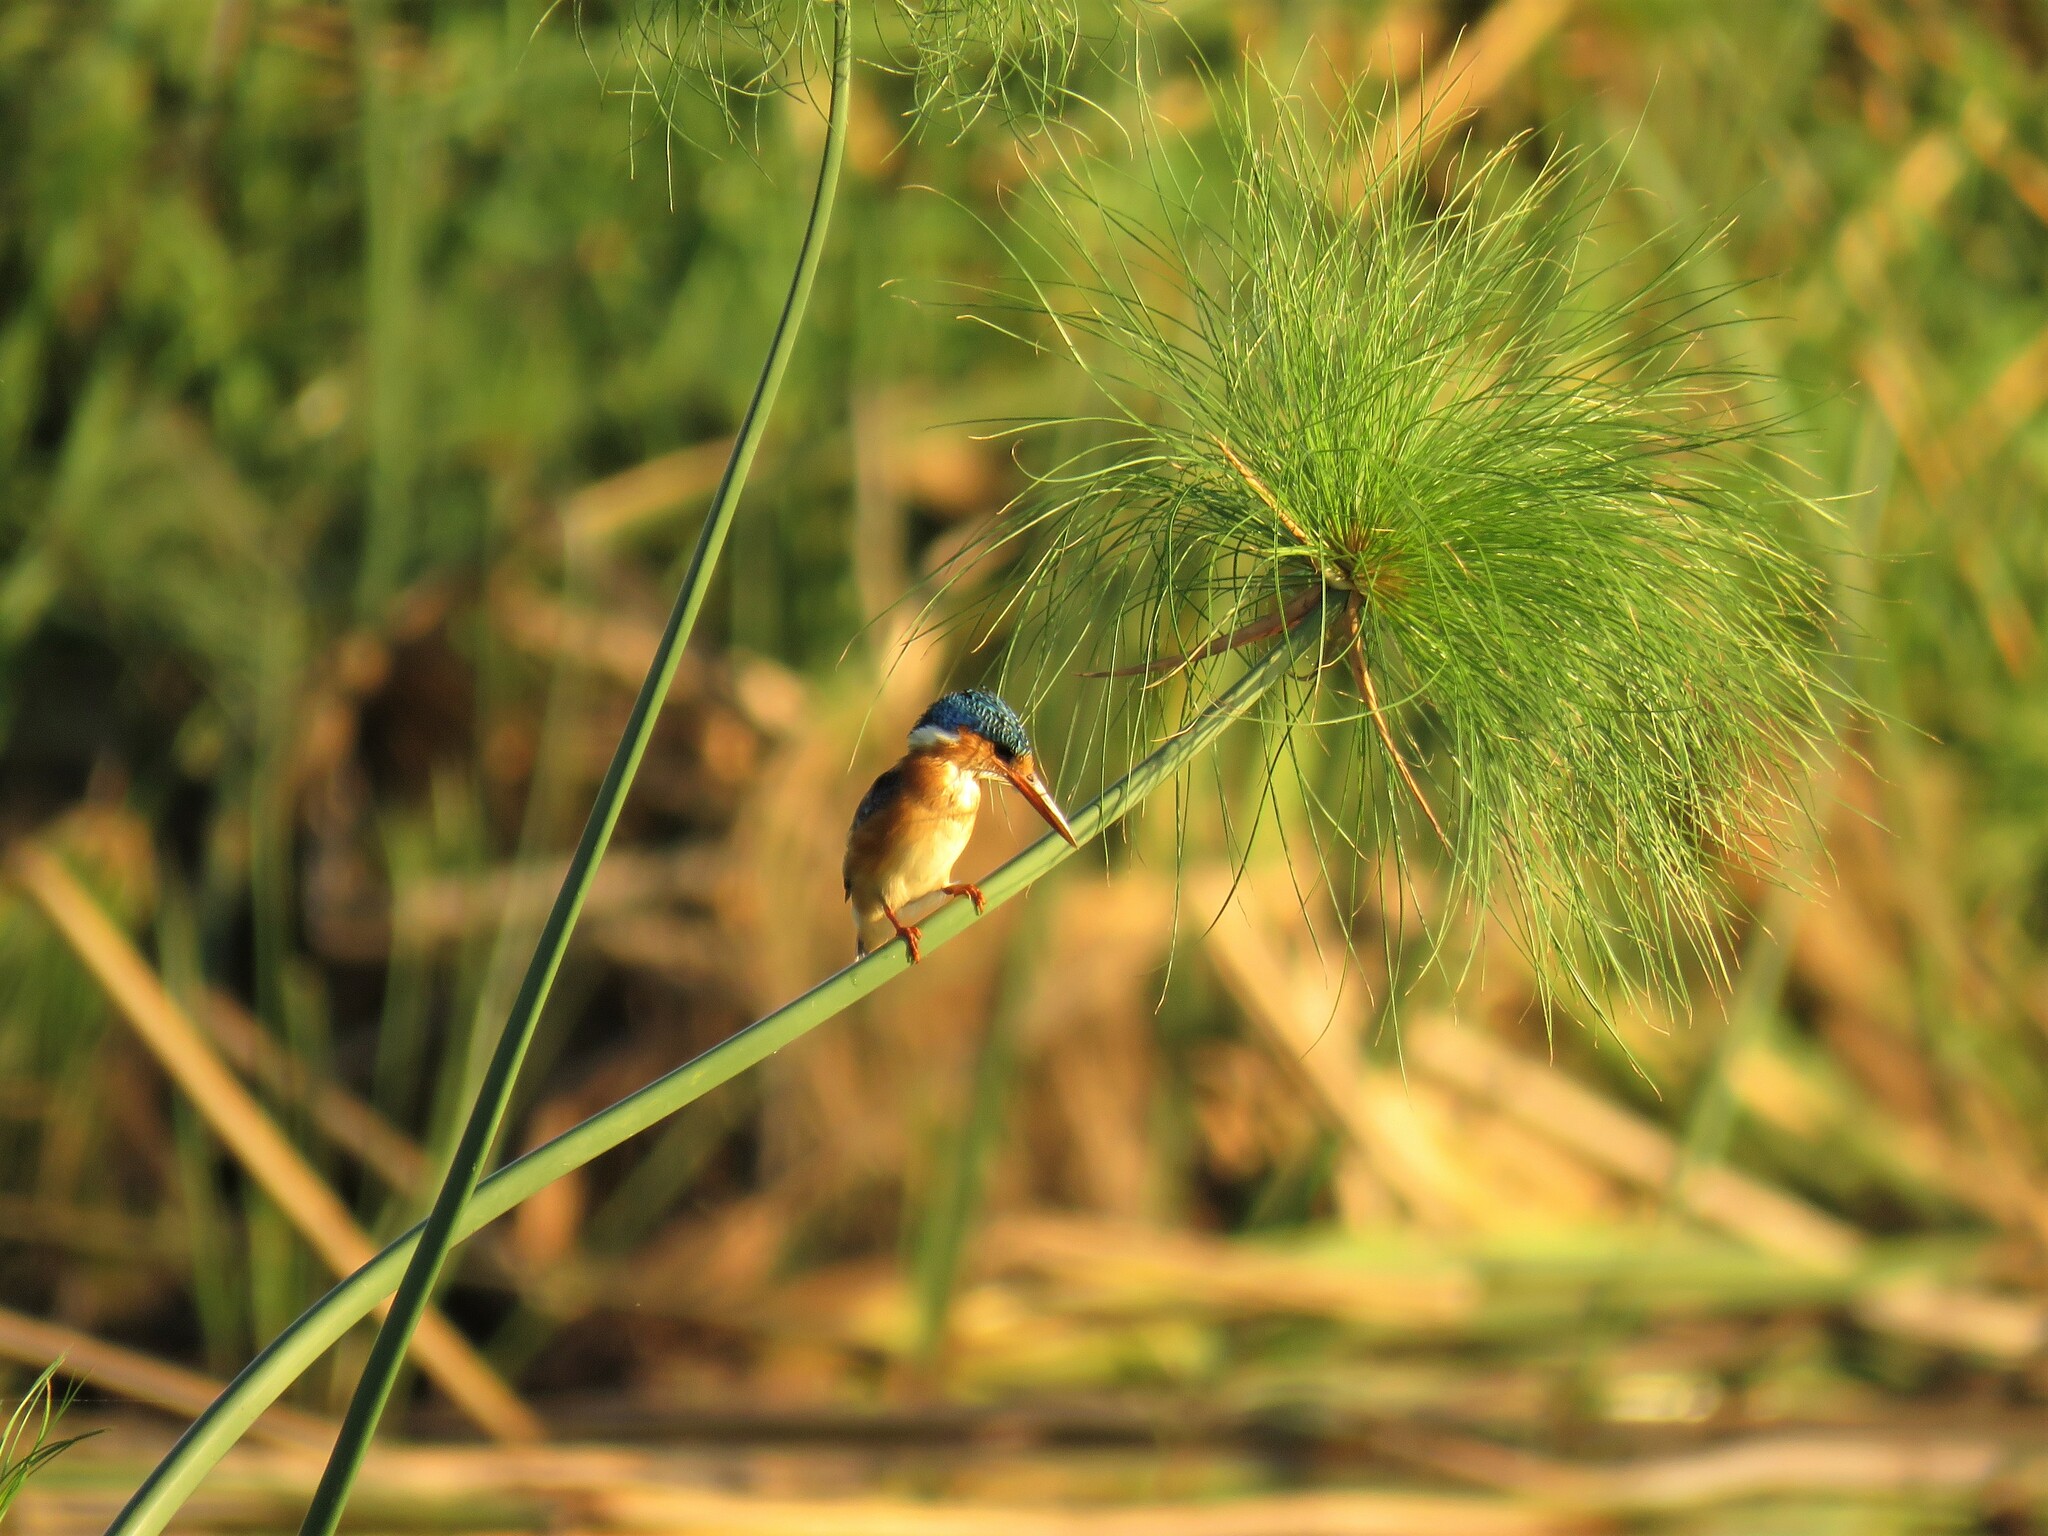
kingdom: Animalia
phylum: Chordata
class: Aves
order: Coraciiformes
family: Alcedinidae
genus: Corythornis
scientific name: Corythornis cristatus
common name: Malachite kingfisher
